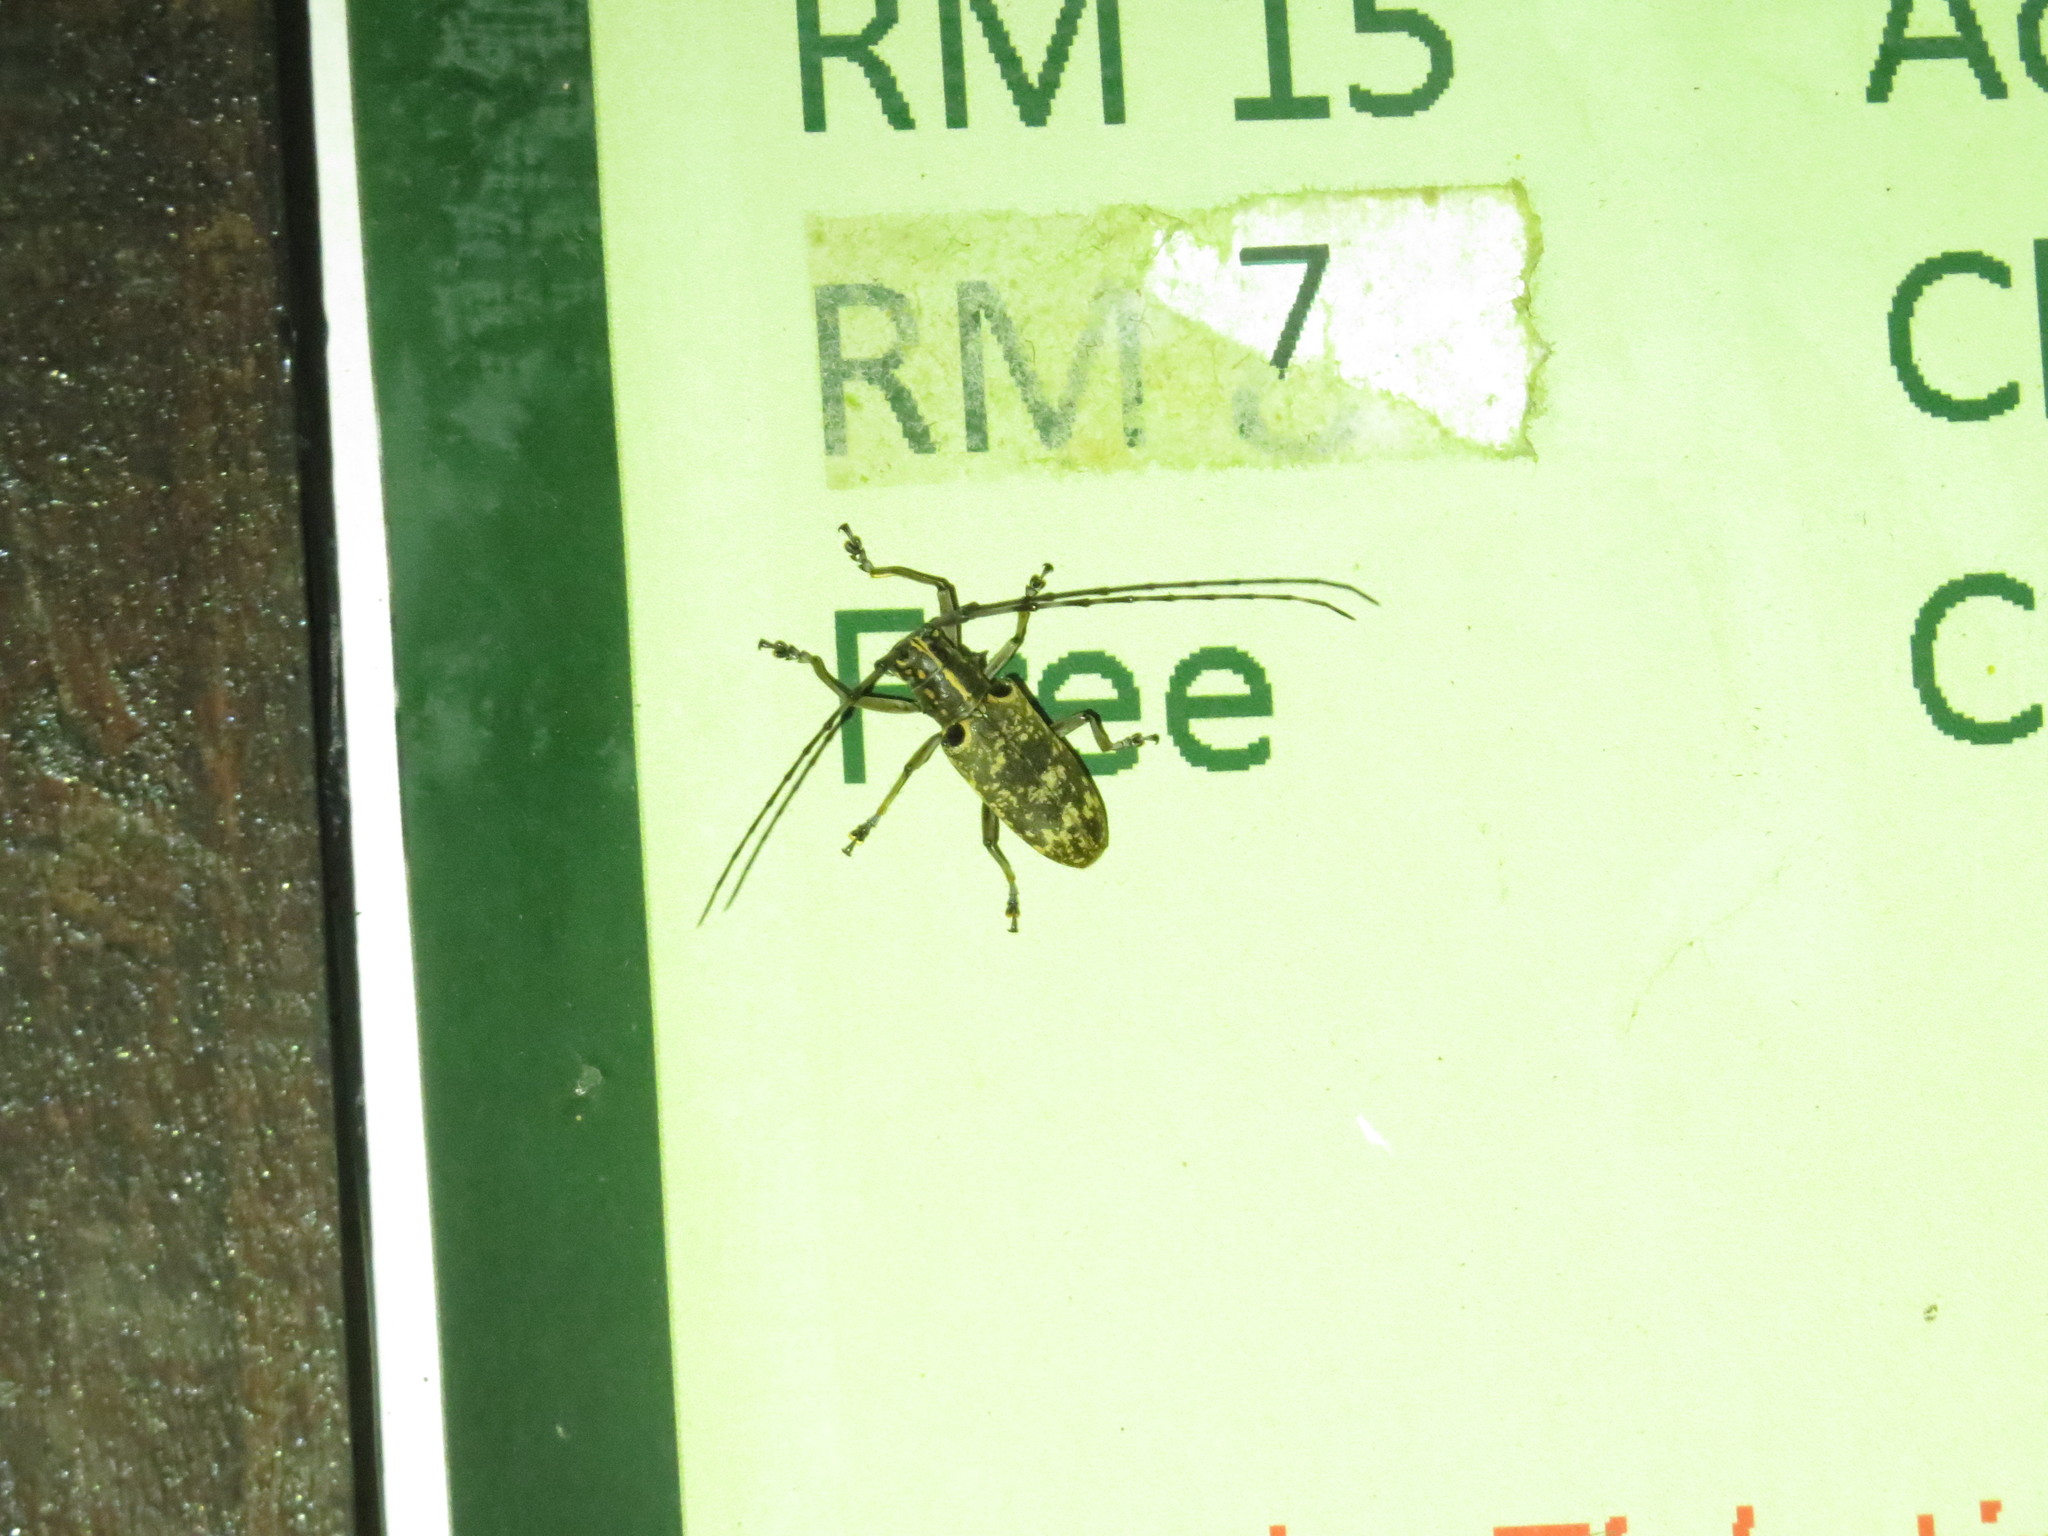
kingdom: Animalia
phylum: Arthropoda
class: Insecta
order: Coleoptera
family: Cerambycidae
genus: Epepeotes
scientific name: Epepeotes luscus
